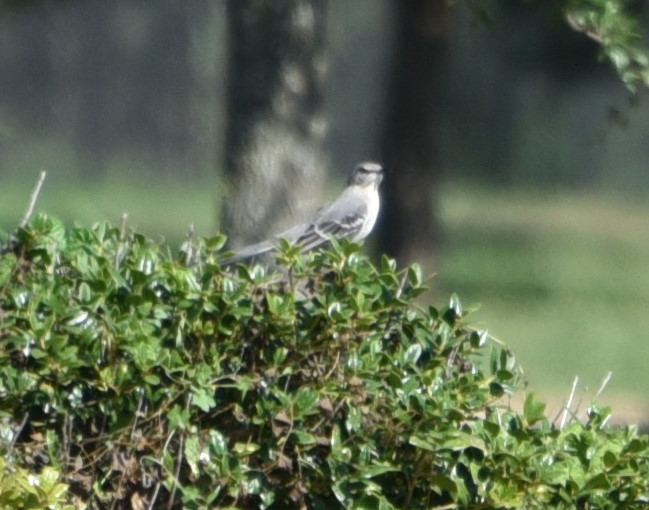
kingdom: Animalia
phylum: Chordata
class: Aves
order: Passeriformes
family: Mimidae
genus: Mimus
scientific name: Mimus polyglottos
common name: Northern mockingbird
